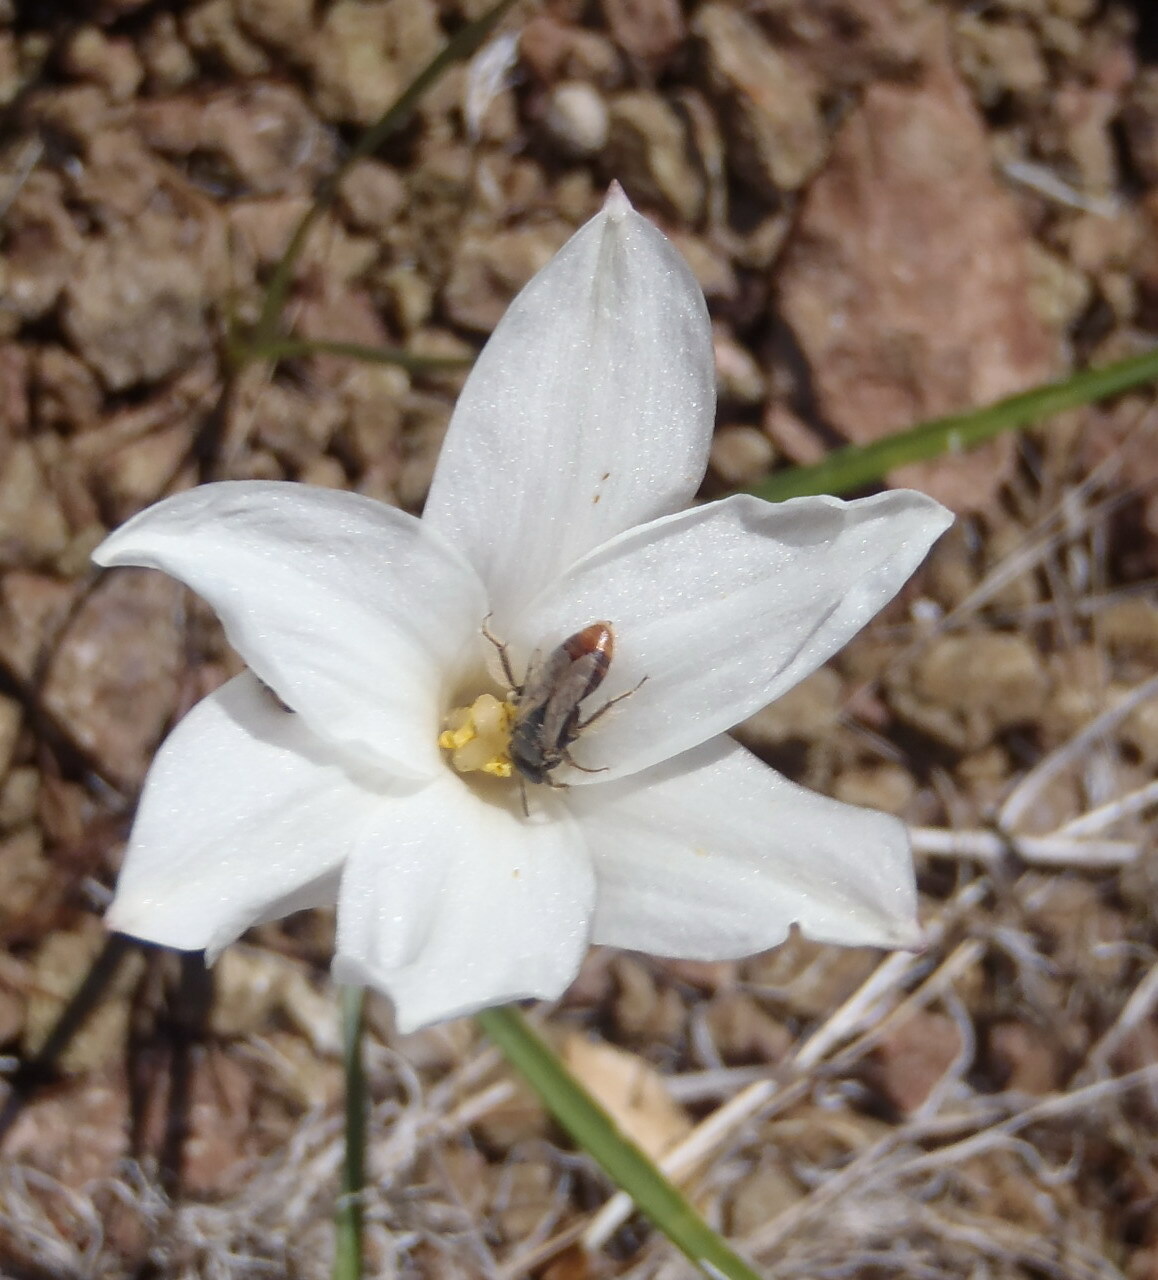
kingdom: Plantae
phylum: Tracheophyta
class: Liliopsida
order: Asparagales
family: Amaryllidaceae
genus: Zephyranthes
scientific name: Zephyranthes drummondii
